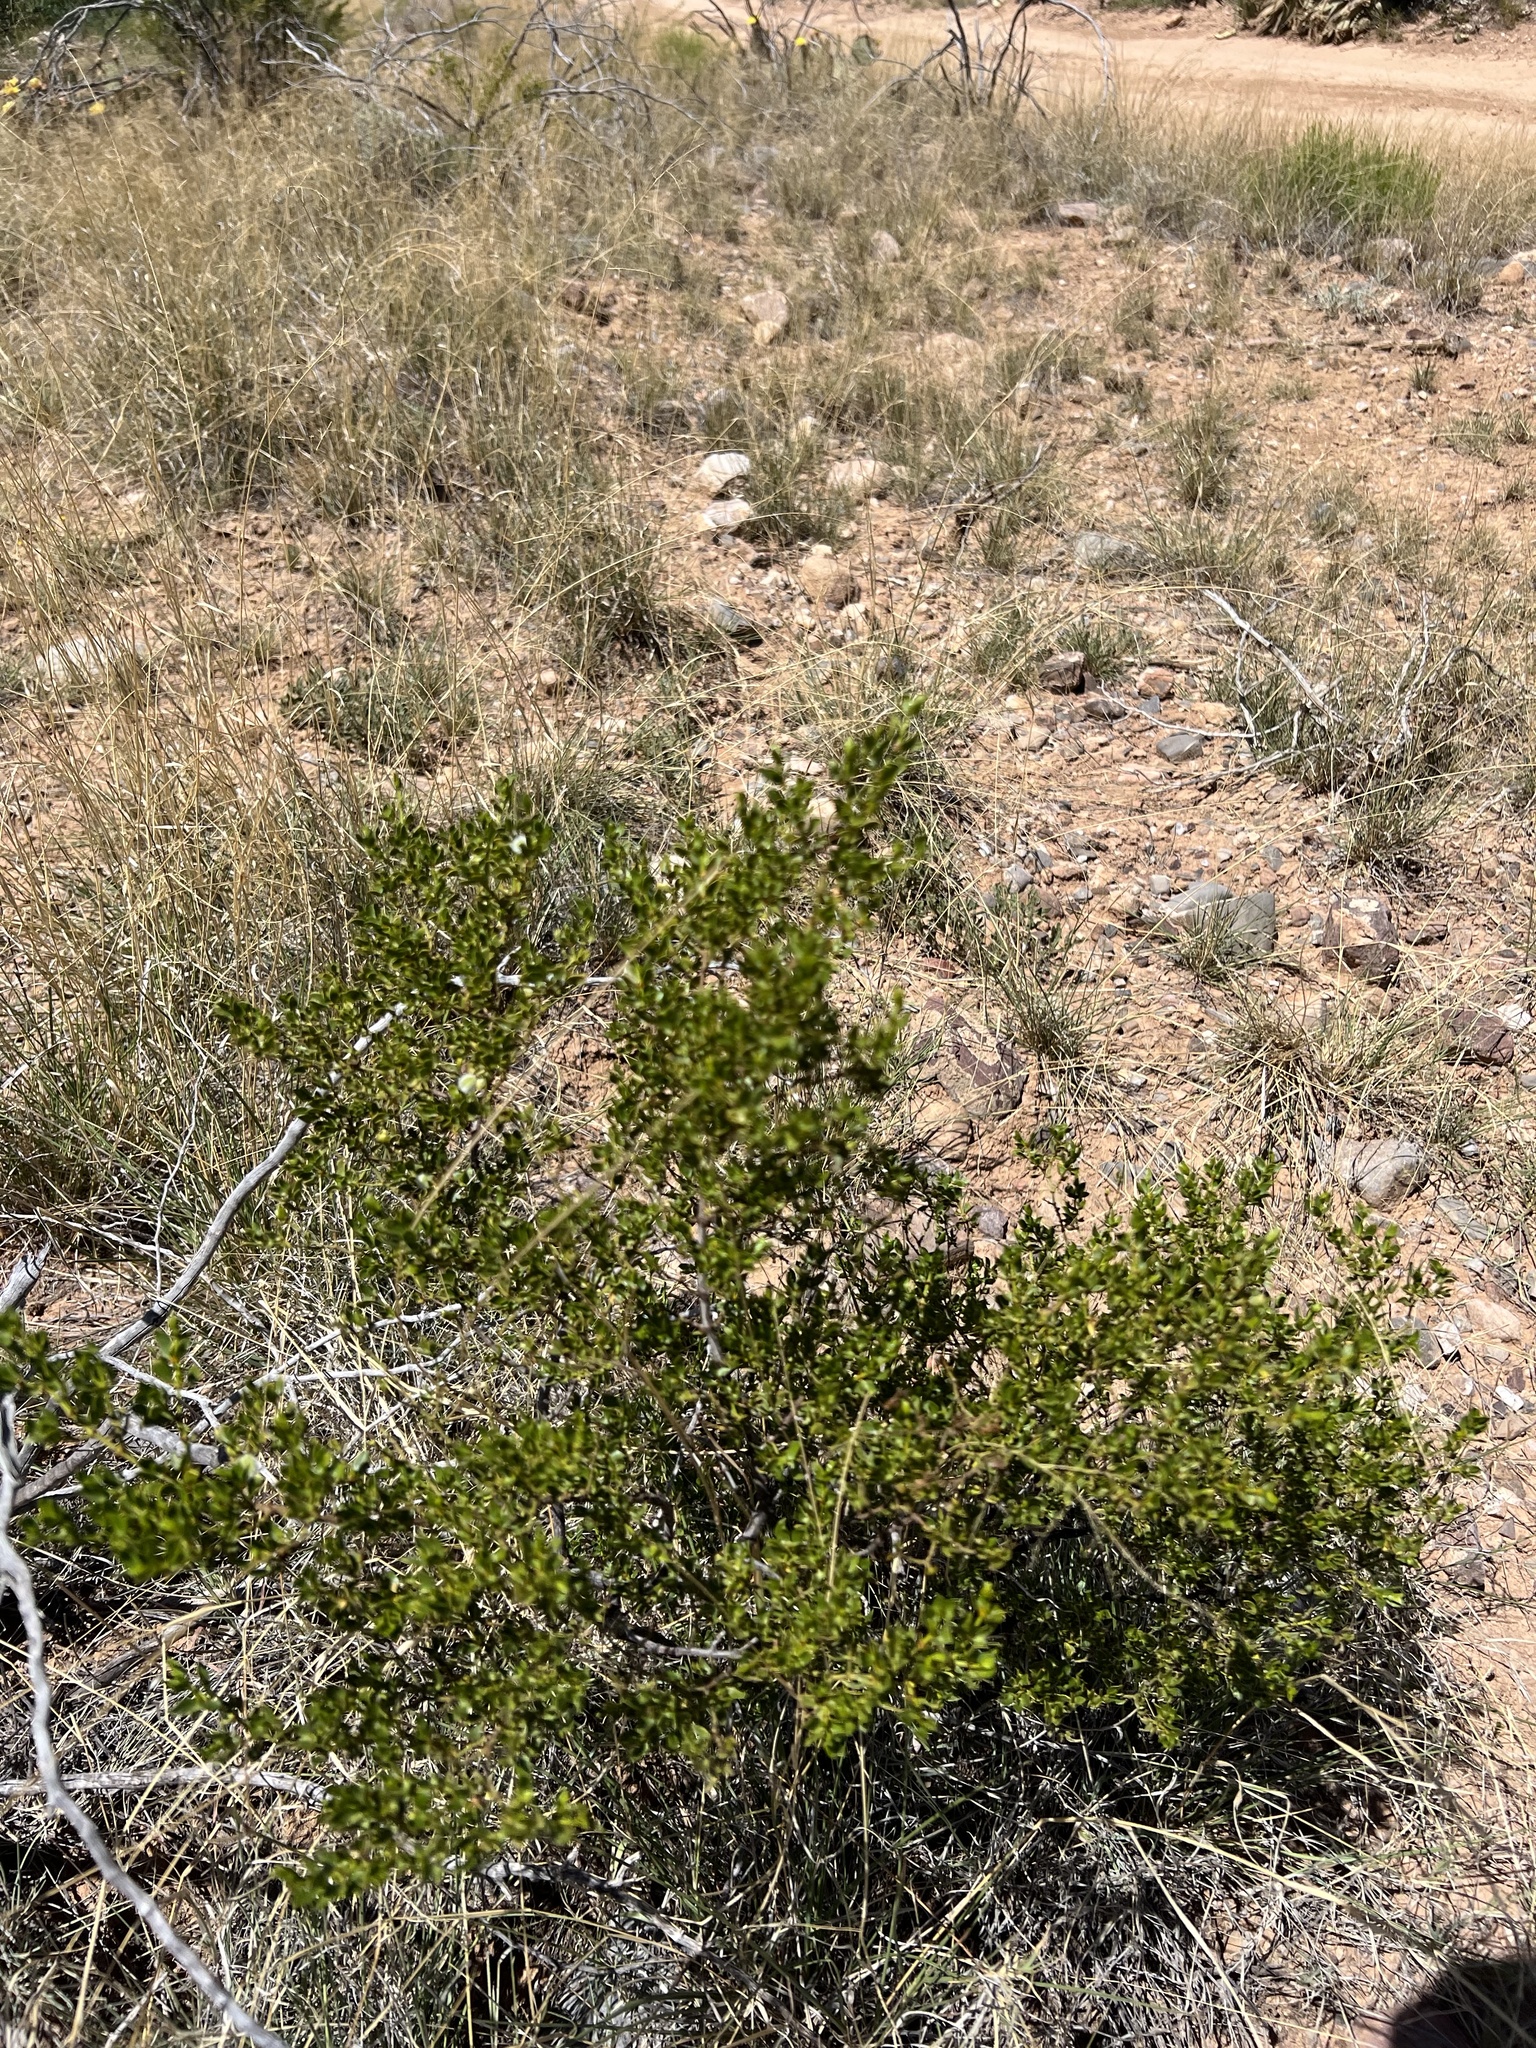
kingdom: Plantae
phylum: Tracheophyta
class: Magnoliopsida
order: Zygophyllales
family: Zygophyllaceae
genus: Larrea
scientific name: Larrea tridentata
